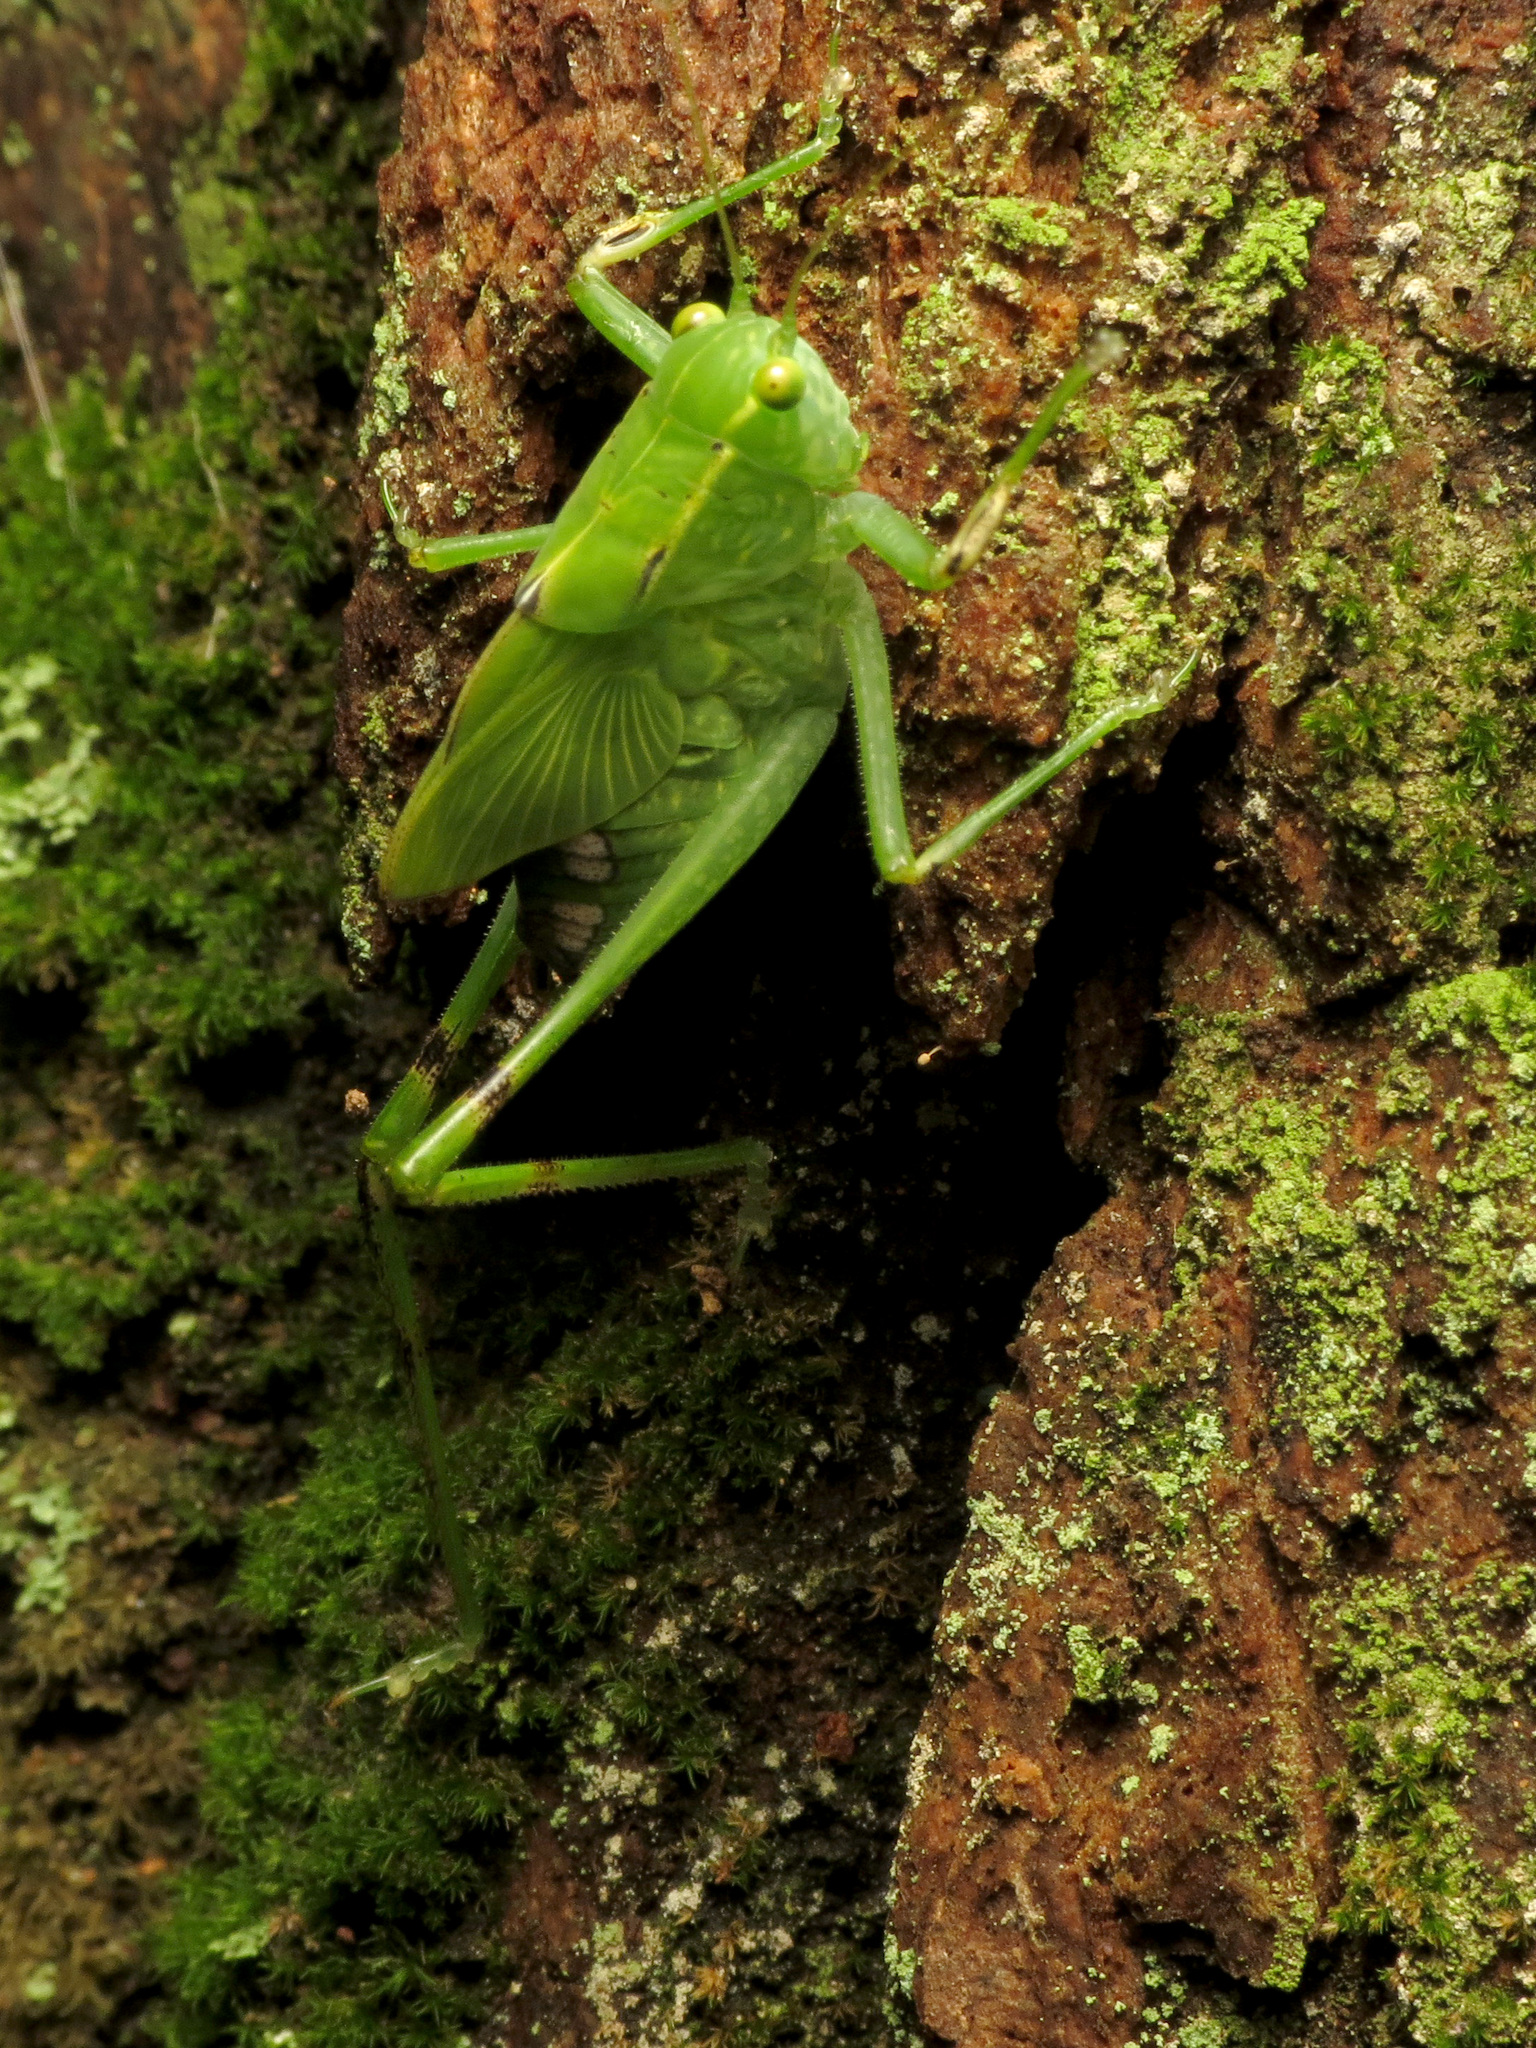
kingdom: Animalia
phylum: Arthropoda
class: Insecta
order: Orthoptera
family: Tettigoniidae
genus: Microcentrum
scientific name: Microcentrum retinerve
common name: Angular-winged katydid
